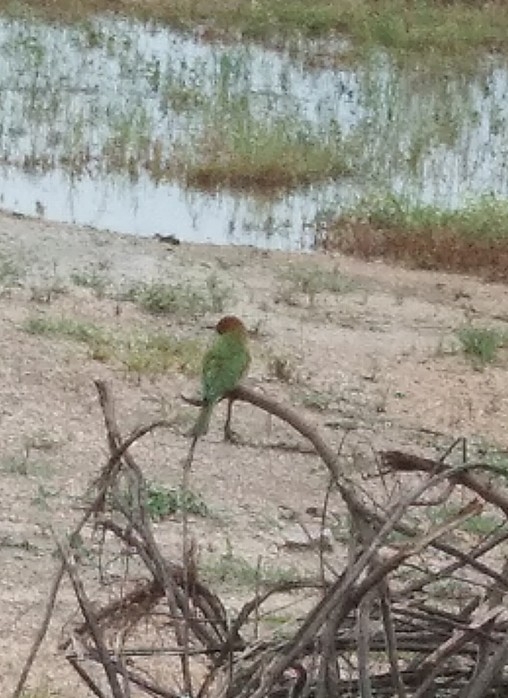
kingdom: Animalia
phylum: Chordata
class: Aves
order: Coraciiformes
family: Meropidae
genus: Merops
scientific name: Merops orientalis
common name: Green bee-eater
